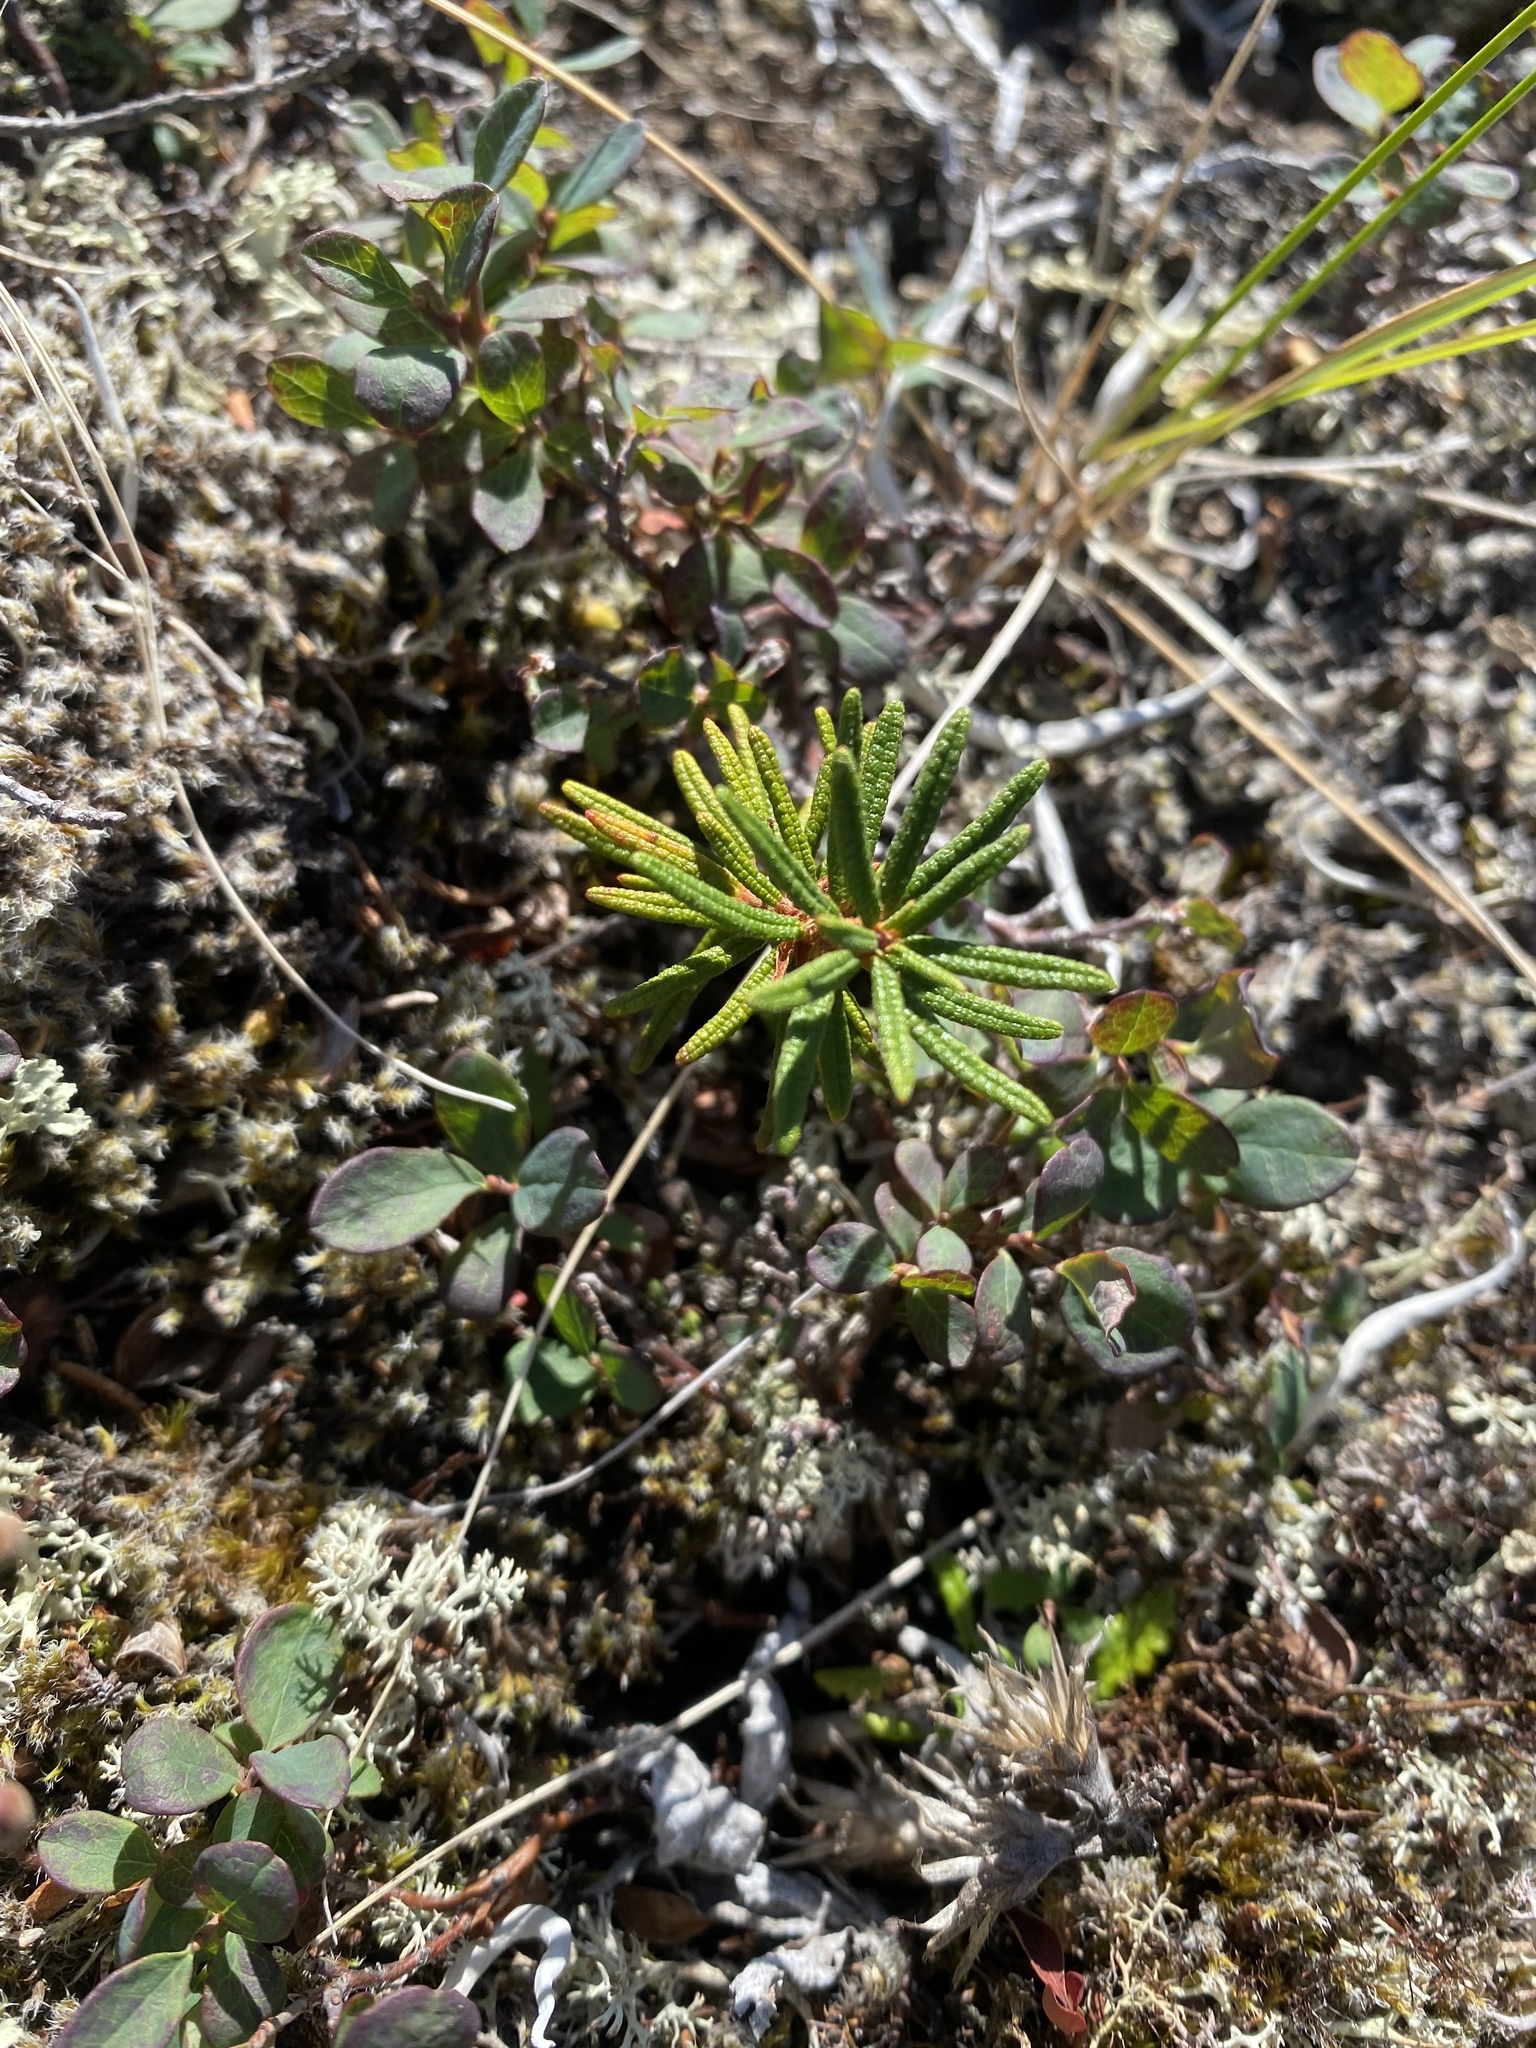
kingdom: Plantae
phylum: Tracheophyta
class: Magnoliopsida
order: Ericales
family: Ericaceae
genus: Rhododendron
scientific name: Rhododendron tomentosum
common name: Marsh labrador tea
